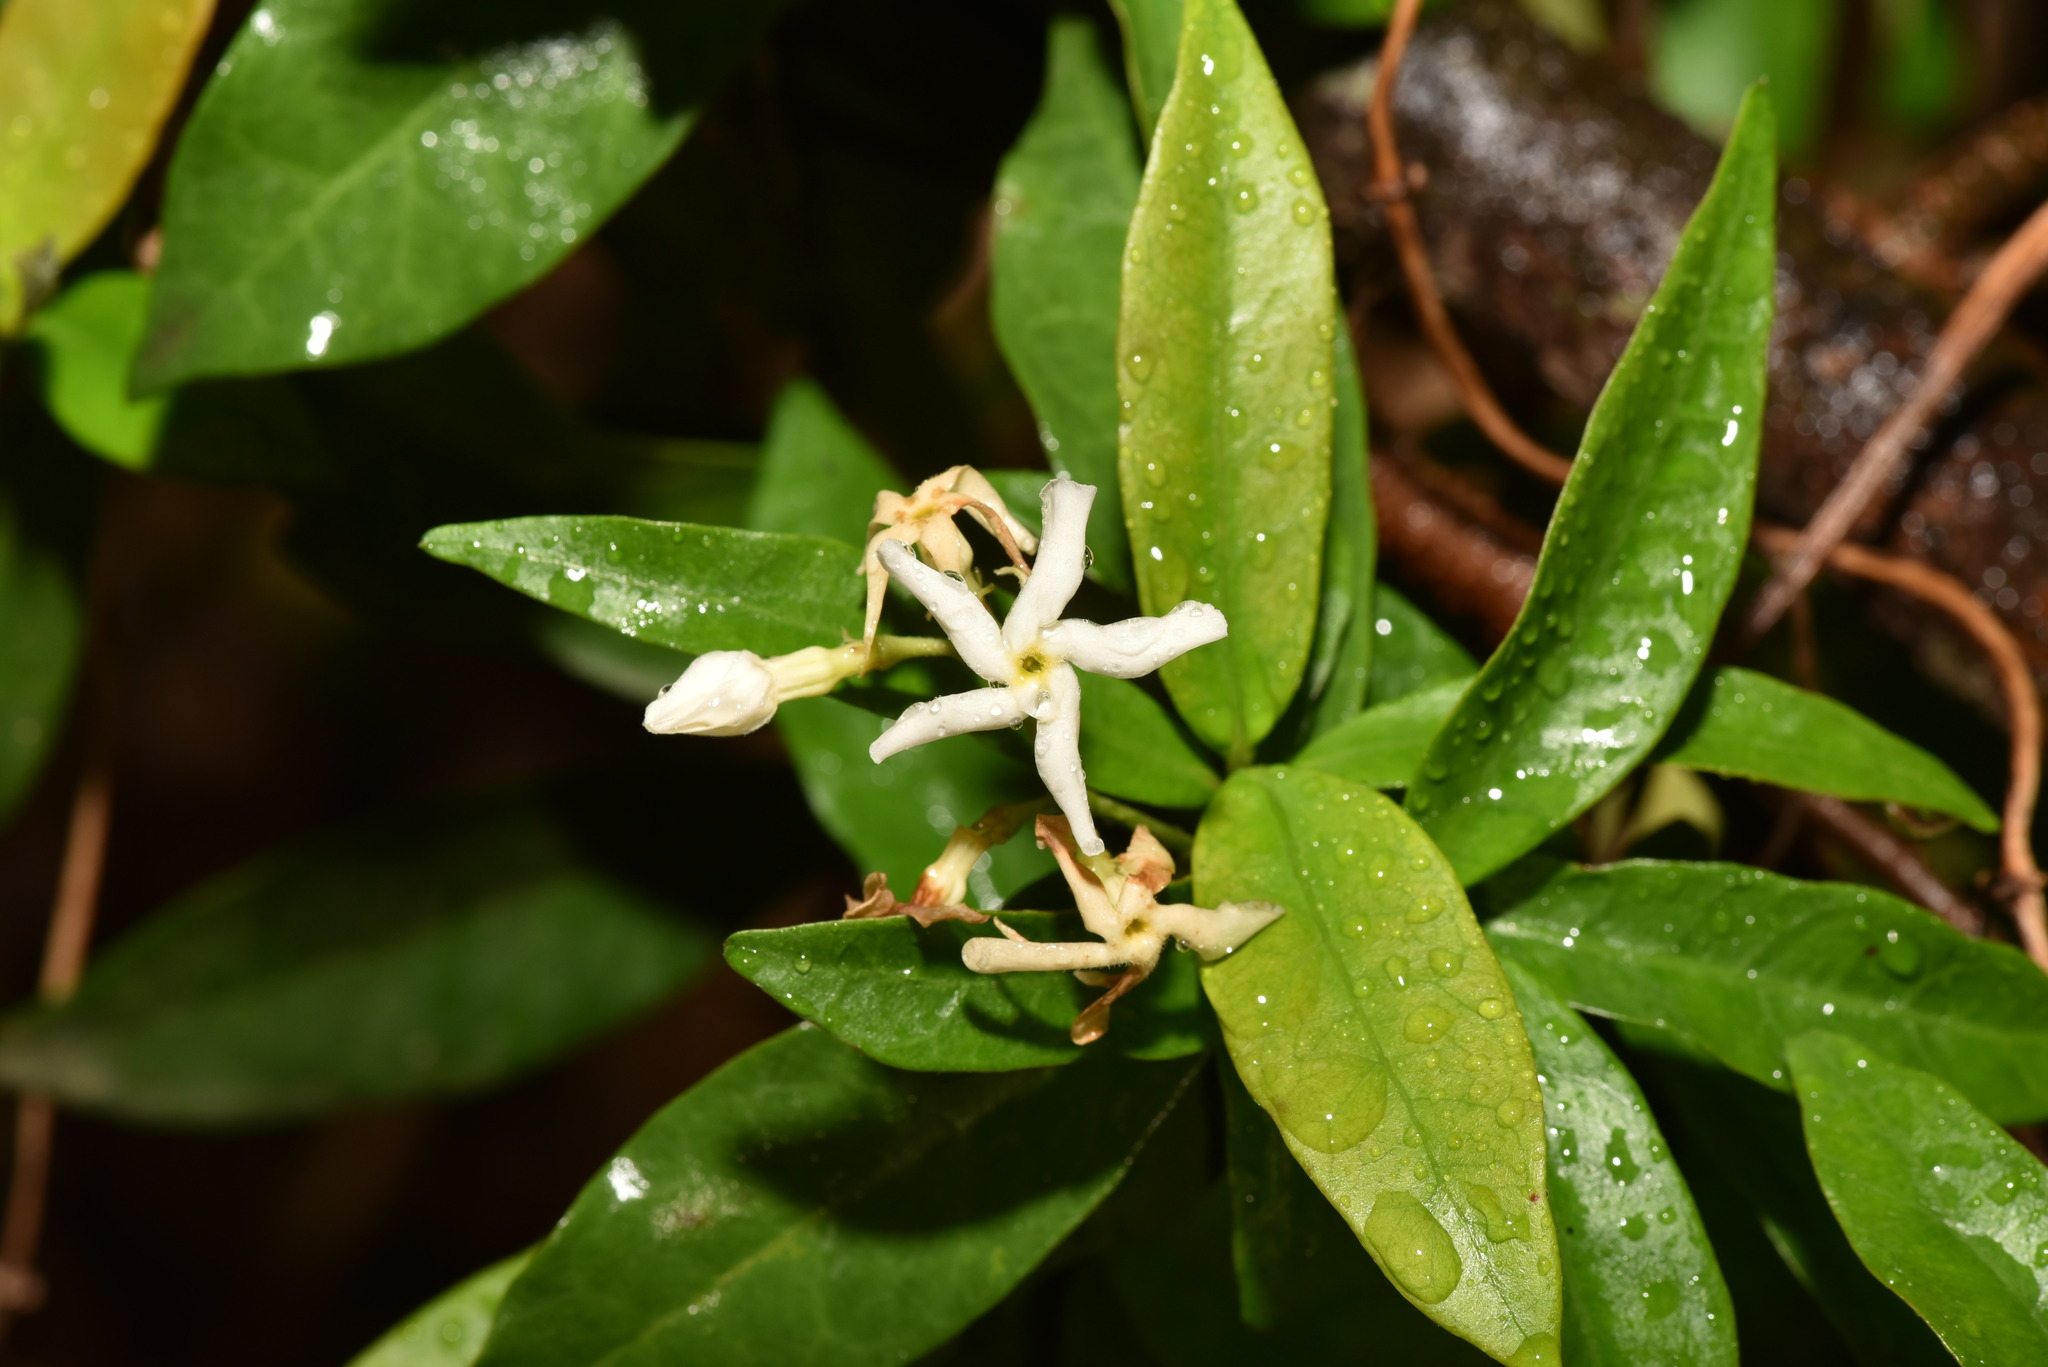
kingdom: Plantae
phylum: Tracheophyta
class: Magnoliopsida
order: Gentianales
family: Apocynaceae
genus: Trachelospermum
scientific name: Trachelospermum asiaticum
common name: Asiatic jasmine
